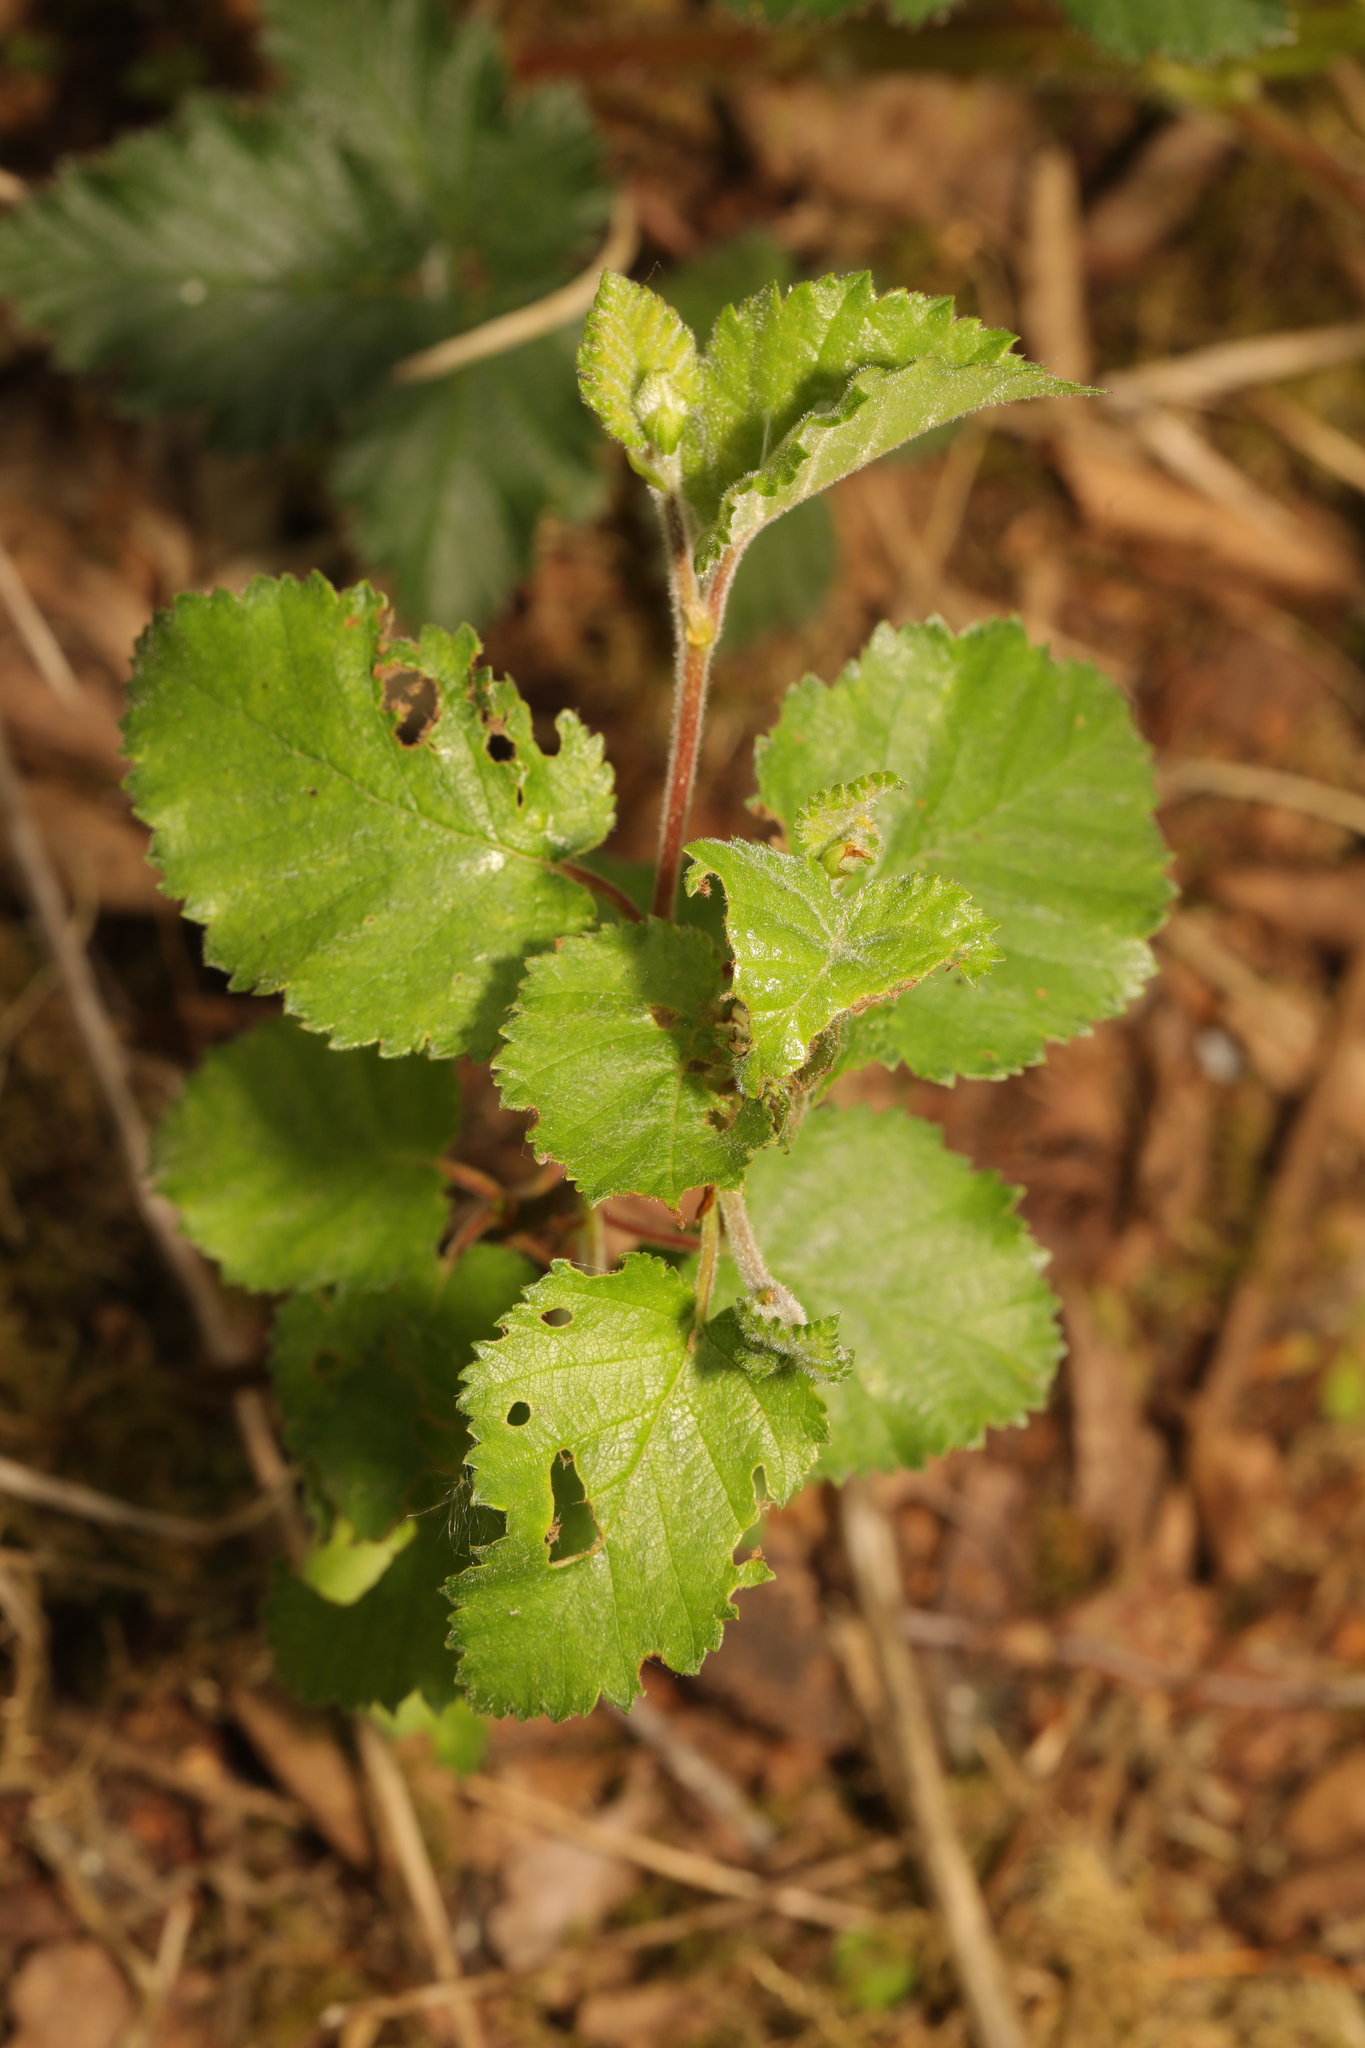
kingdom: Plantae
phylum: Tracheophyta
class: Magnoliopsida
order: Fagales
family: Betulaceae
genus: Betula
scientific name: Betula pubescens
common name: Downy birch
